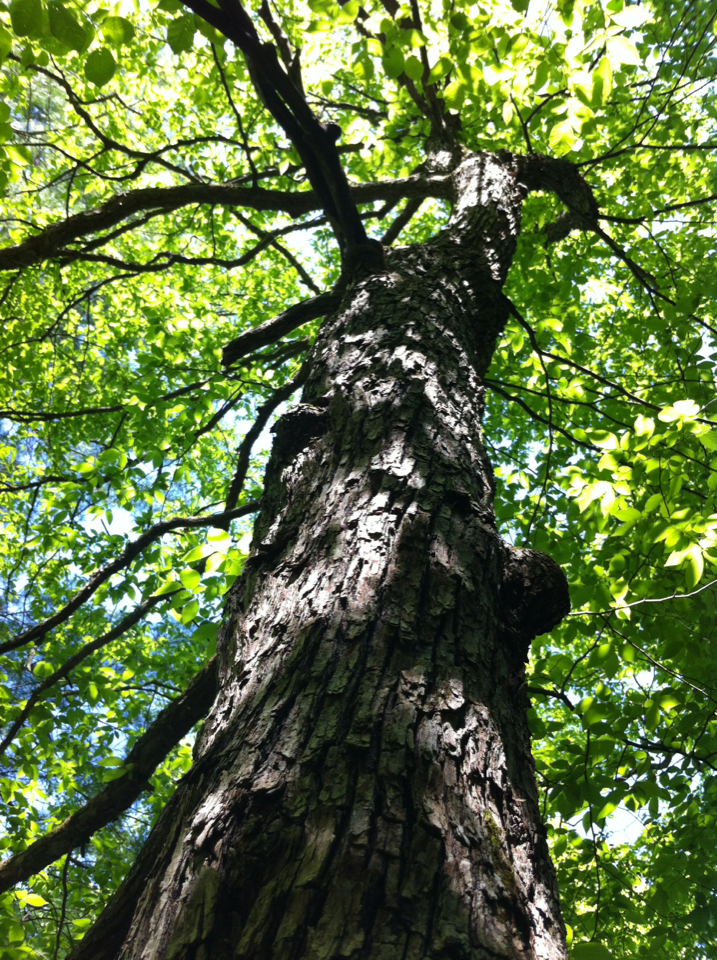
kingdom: Plantae
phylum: Tracheophyta
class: Magnoliopsida
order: Fagales
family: Betulaceae
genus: Ostrya
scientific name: Ostrya virginiana
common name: Ironwood
